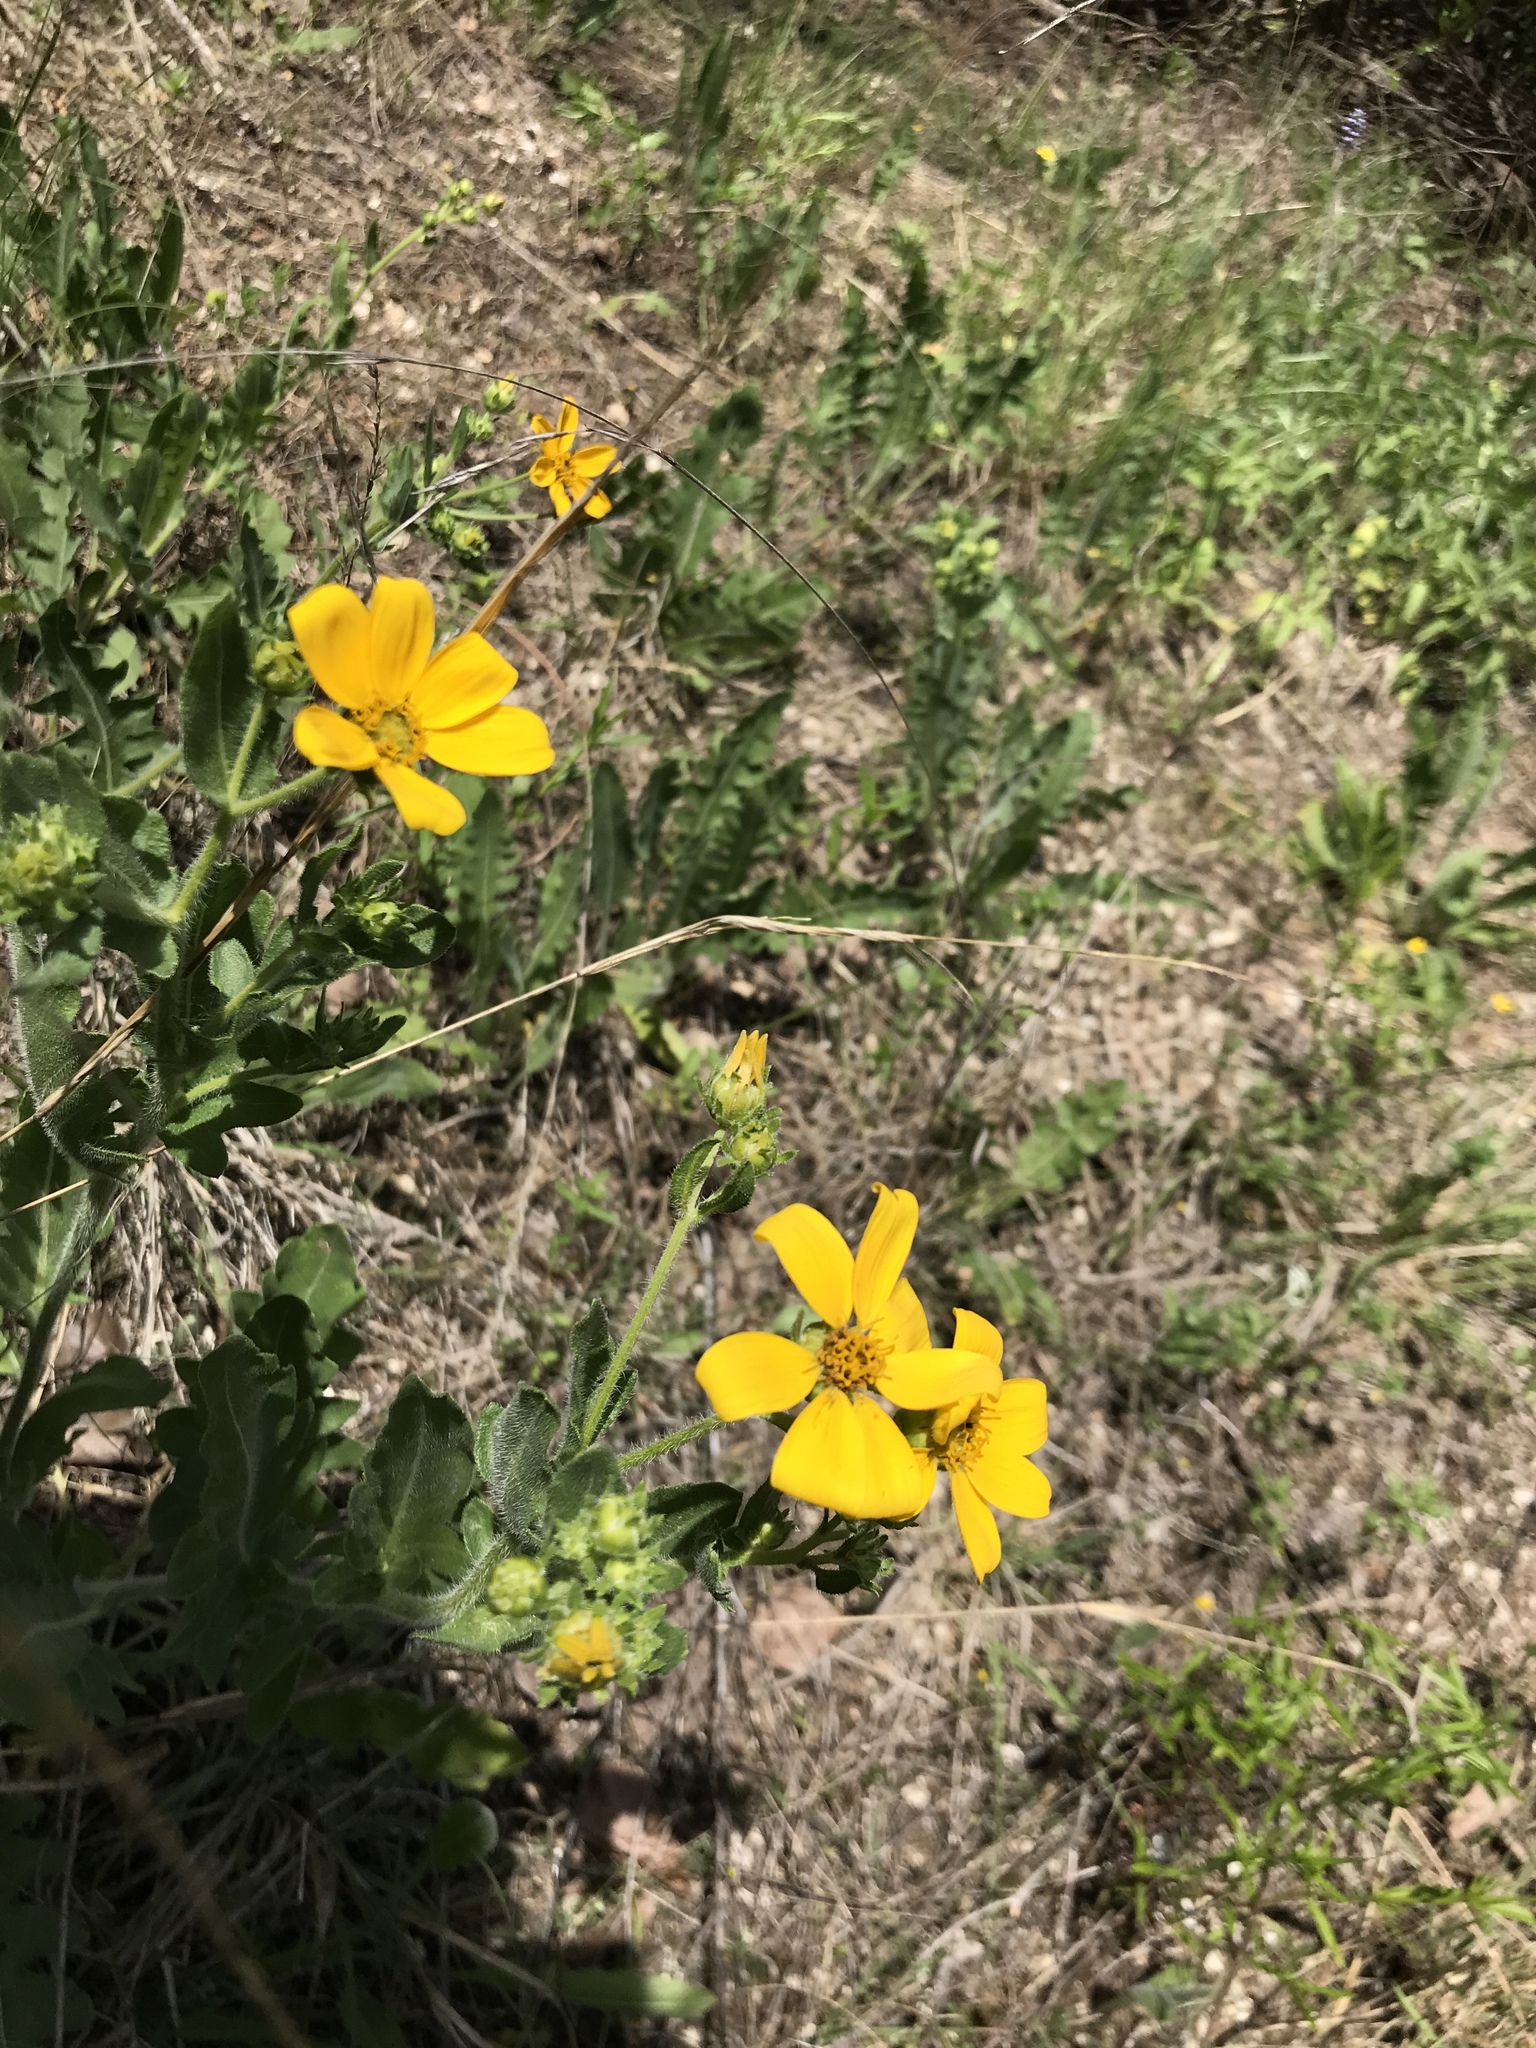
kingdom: Plantae
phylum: Tracheophyta
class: Magnoliopsida
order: Asterales
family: Asteraceae
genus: Engelmannia
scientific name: Engelmannia peristenia
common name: Engelmann's daisy
